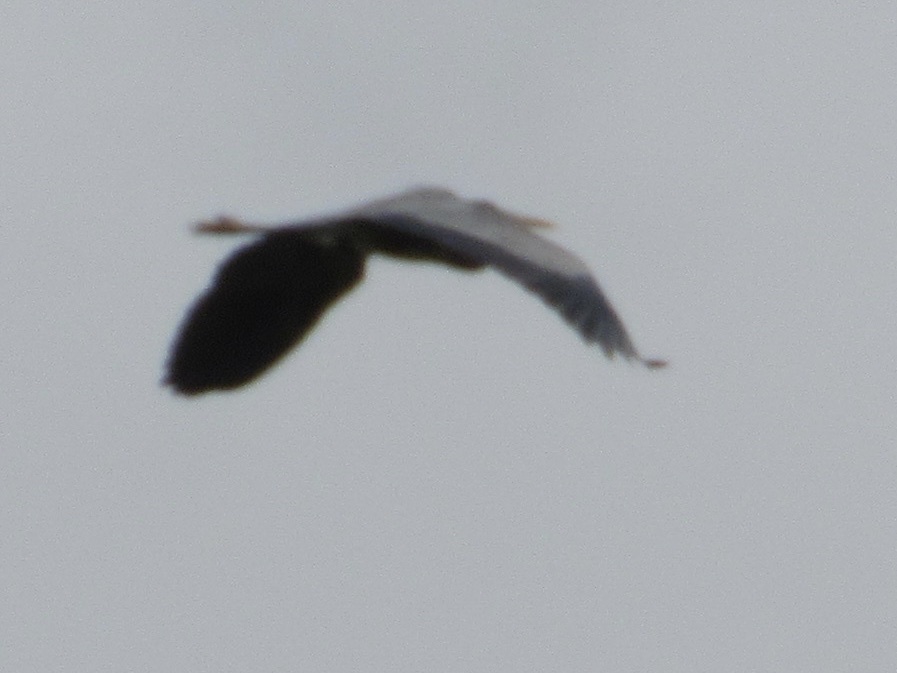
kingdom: Animalia
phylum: Chordata
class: Aves
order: Pelecaniformes
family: Ardeidae
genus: Ardea
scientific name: Ardea herodias
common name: Great blue heron
